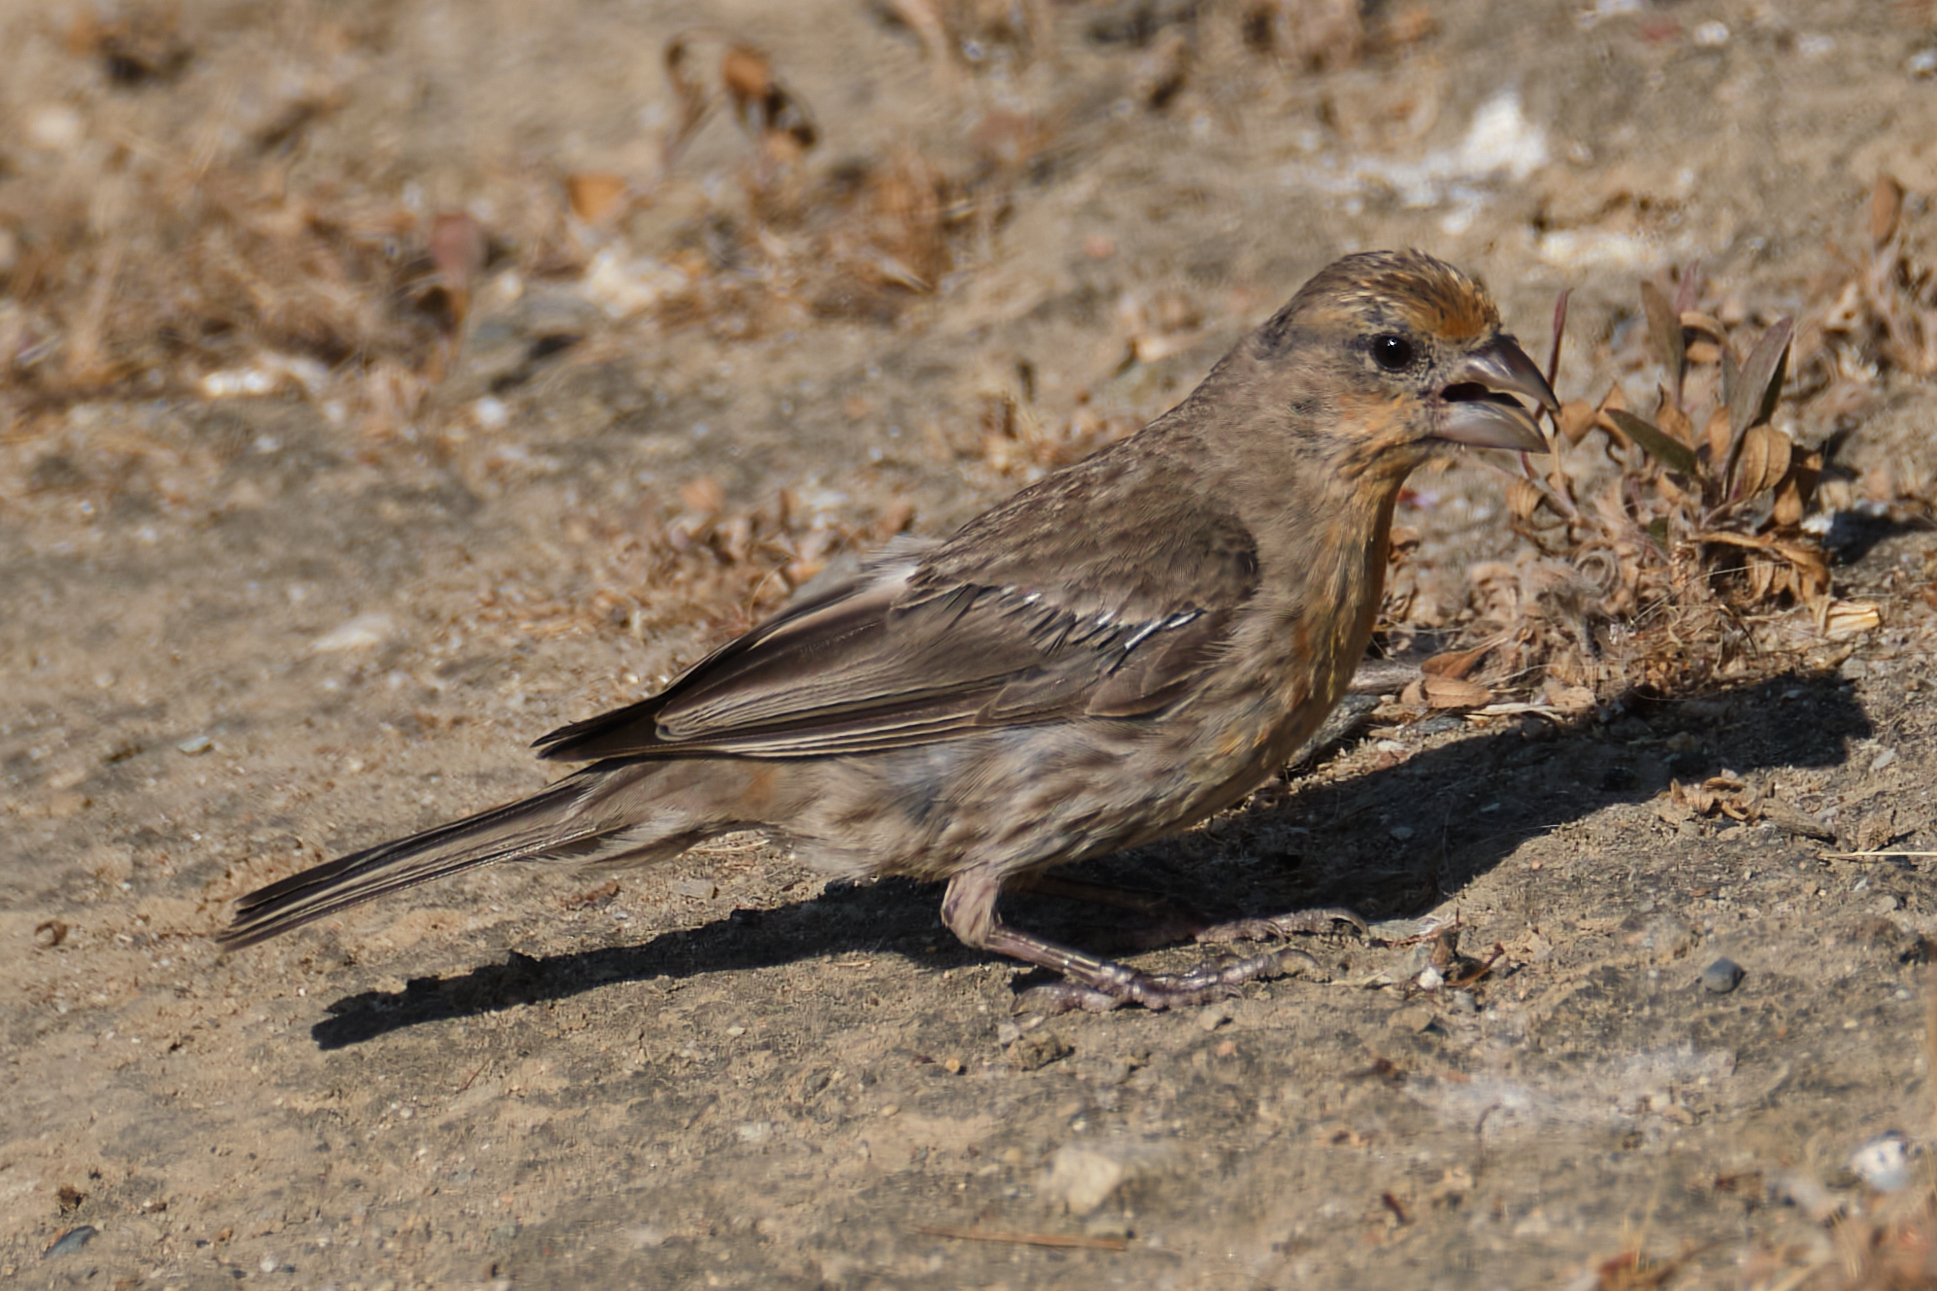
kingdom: Animalia
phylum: Chordata
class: Aves
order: Passeriformes
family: Fringillidae
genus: Haemorhous
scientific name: Haemorhous mexicanus
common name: House finch
